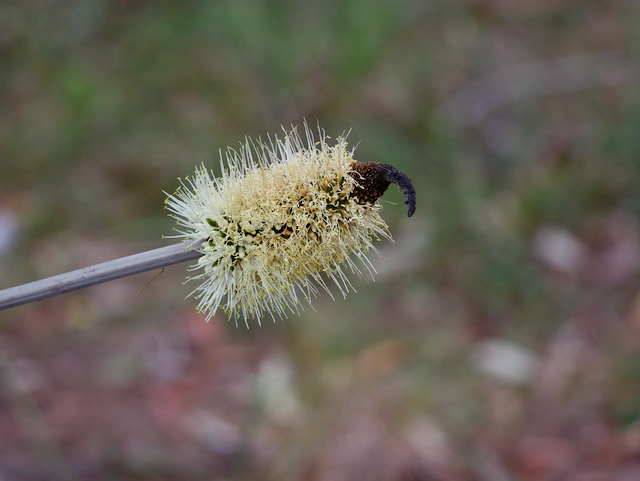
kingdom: Plantae
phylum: Tracheophyta
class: Liliopsida
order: Asparagales
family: Asphodelaceae
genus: Xanthorrhoea
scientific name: Xanthorrhoea macronema
